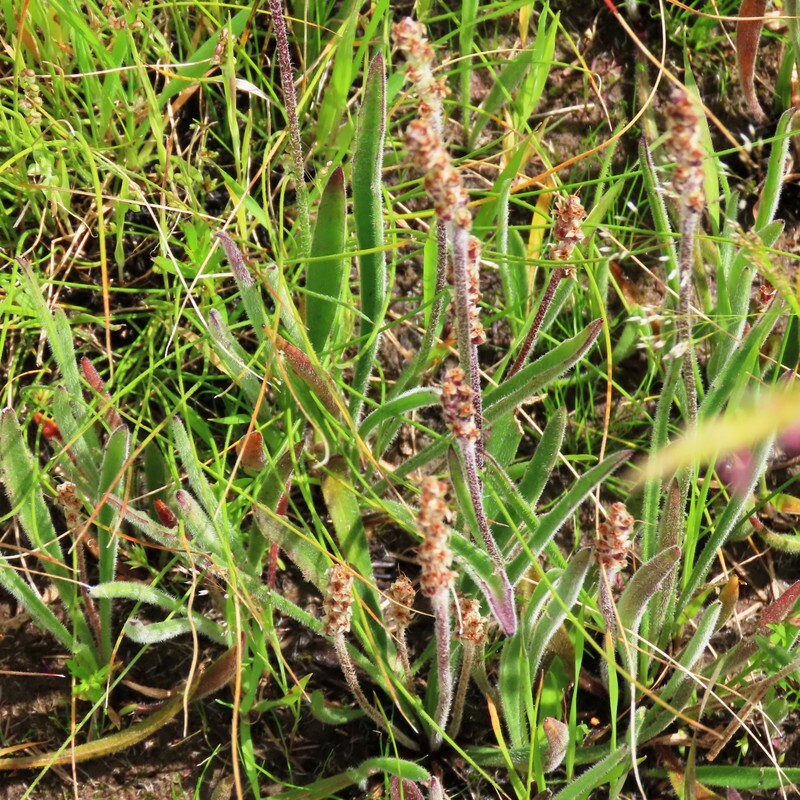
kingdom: Plantae
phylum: Tracheophyta
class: Magnoliopsida
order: Lamiales
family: Plantaginaceae
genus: Plantago
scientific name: Plantago varia
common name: Variable plantain
